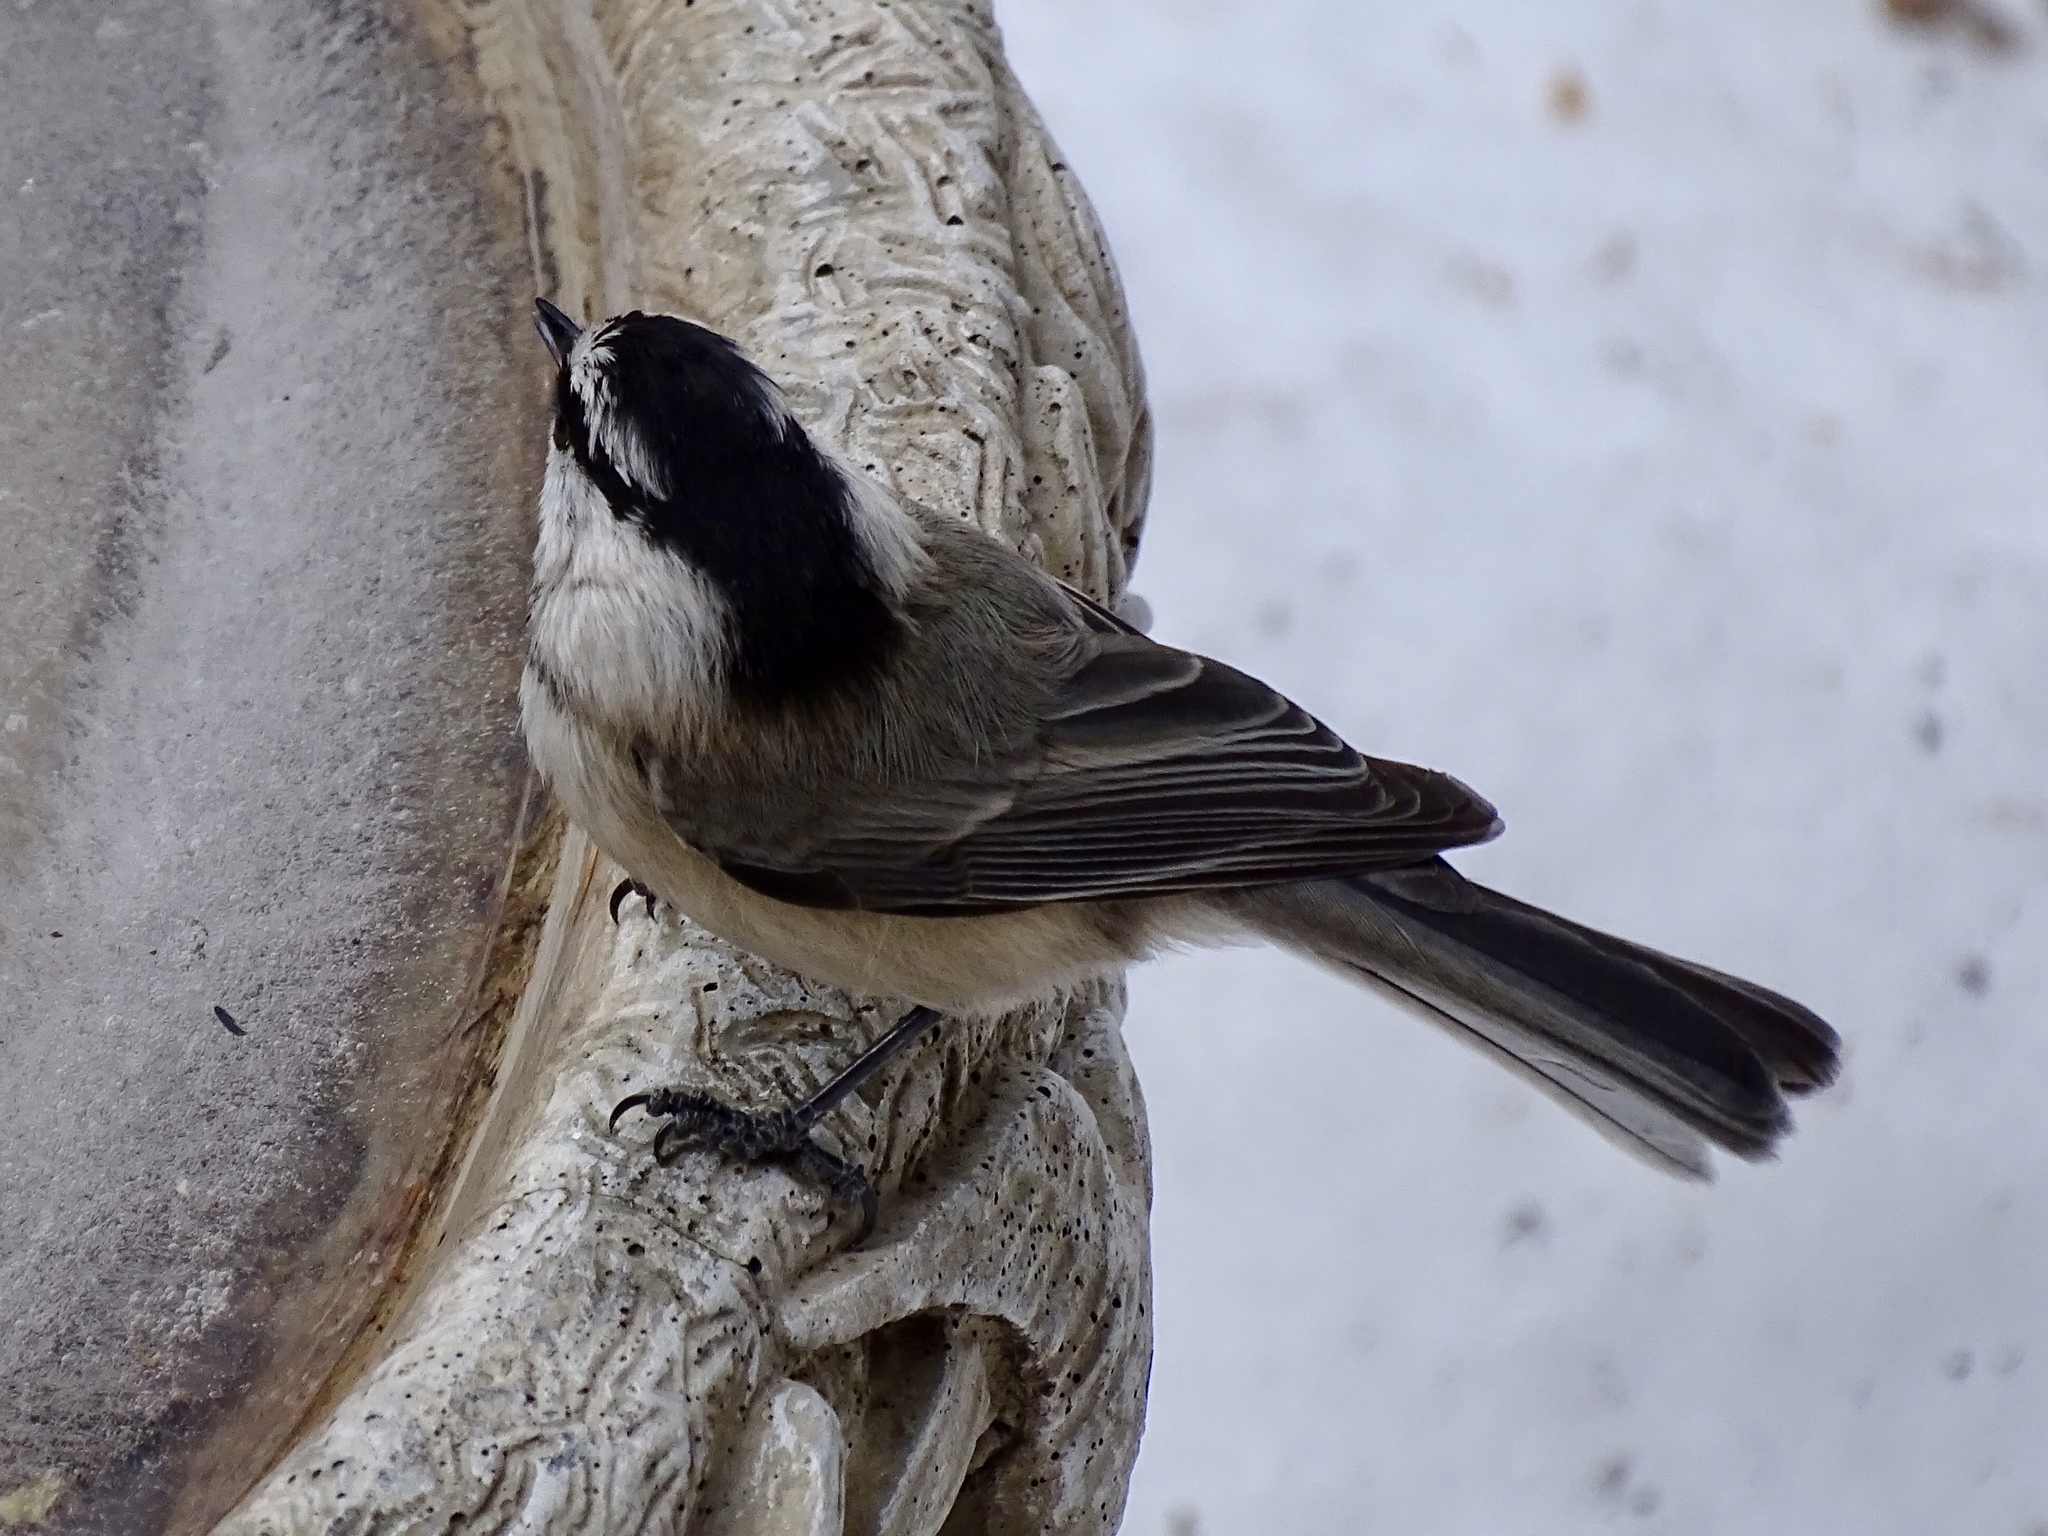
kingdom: Animalia
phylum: Chordata
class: Aves
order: Passeriformes
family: Paridae
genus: Poecile
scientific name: Poecile gambeli
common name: Mountain chickadee
